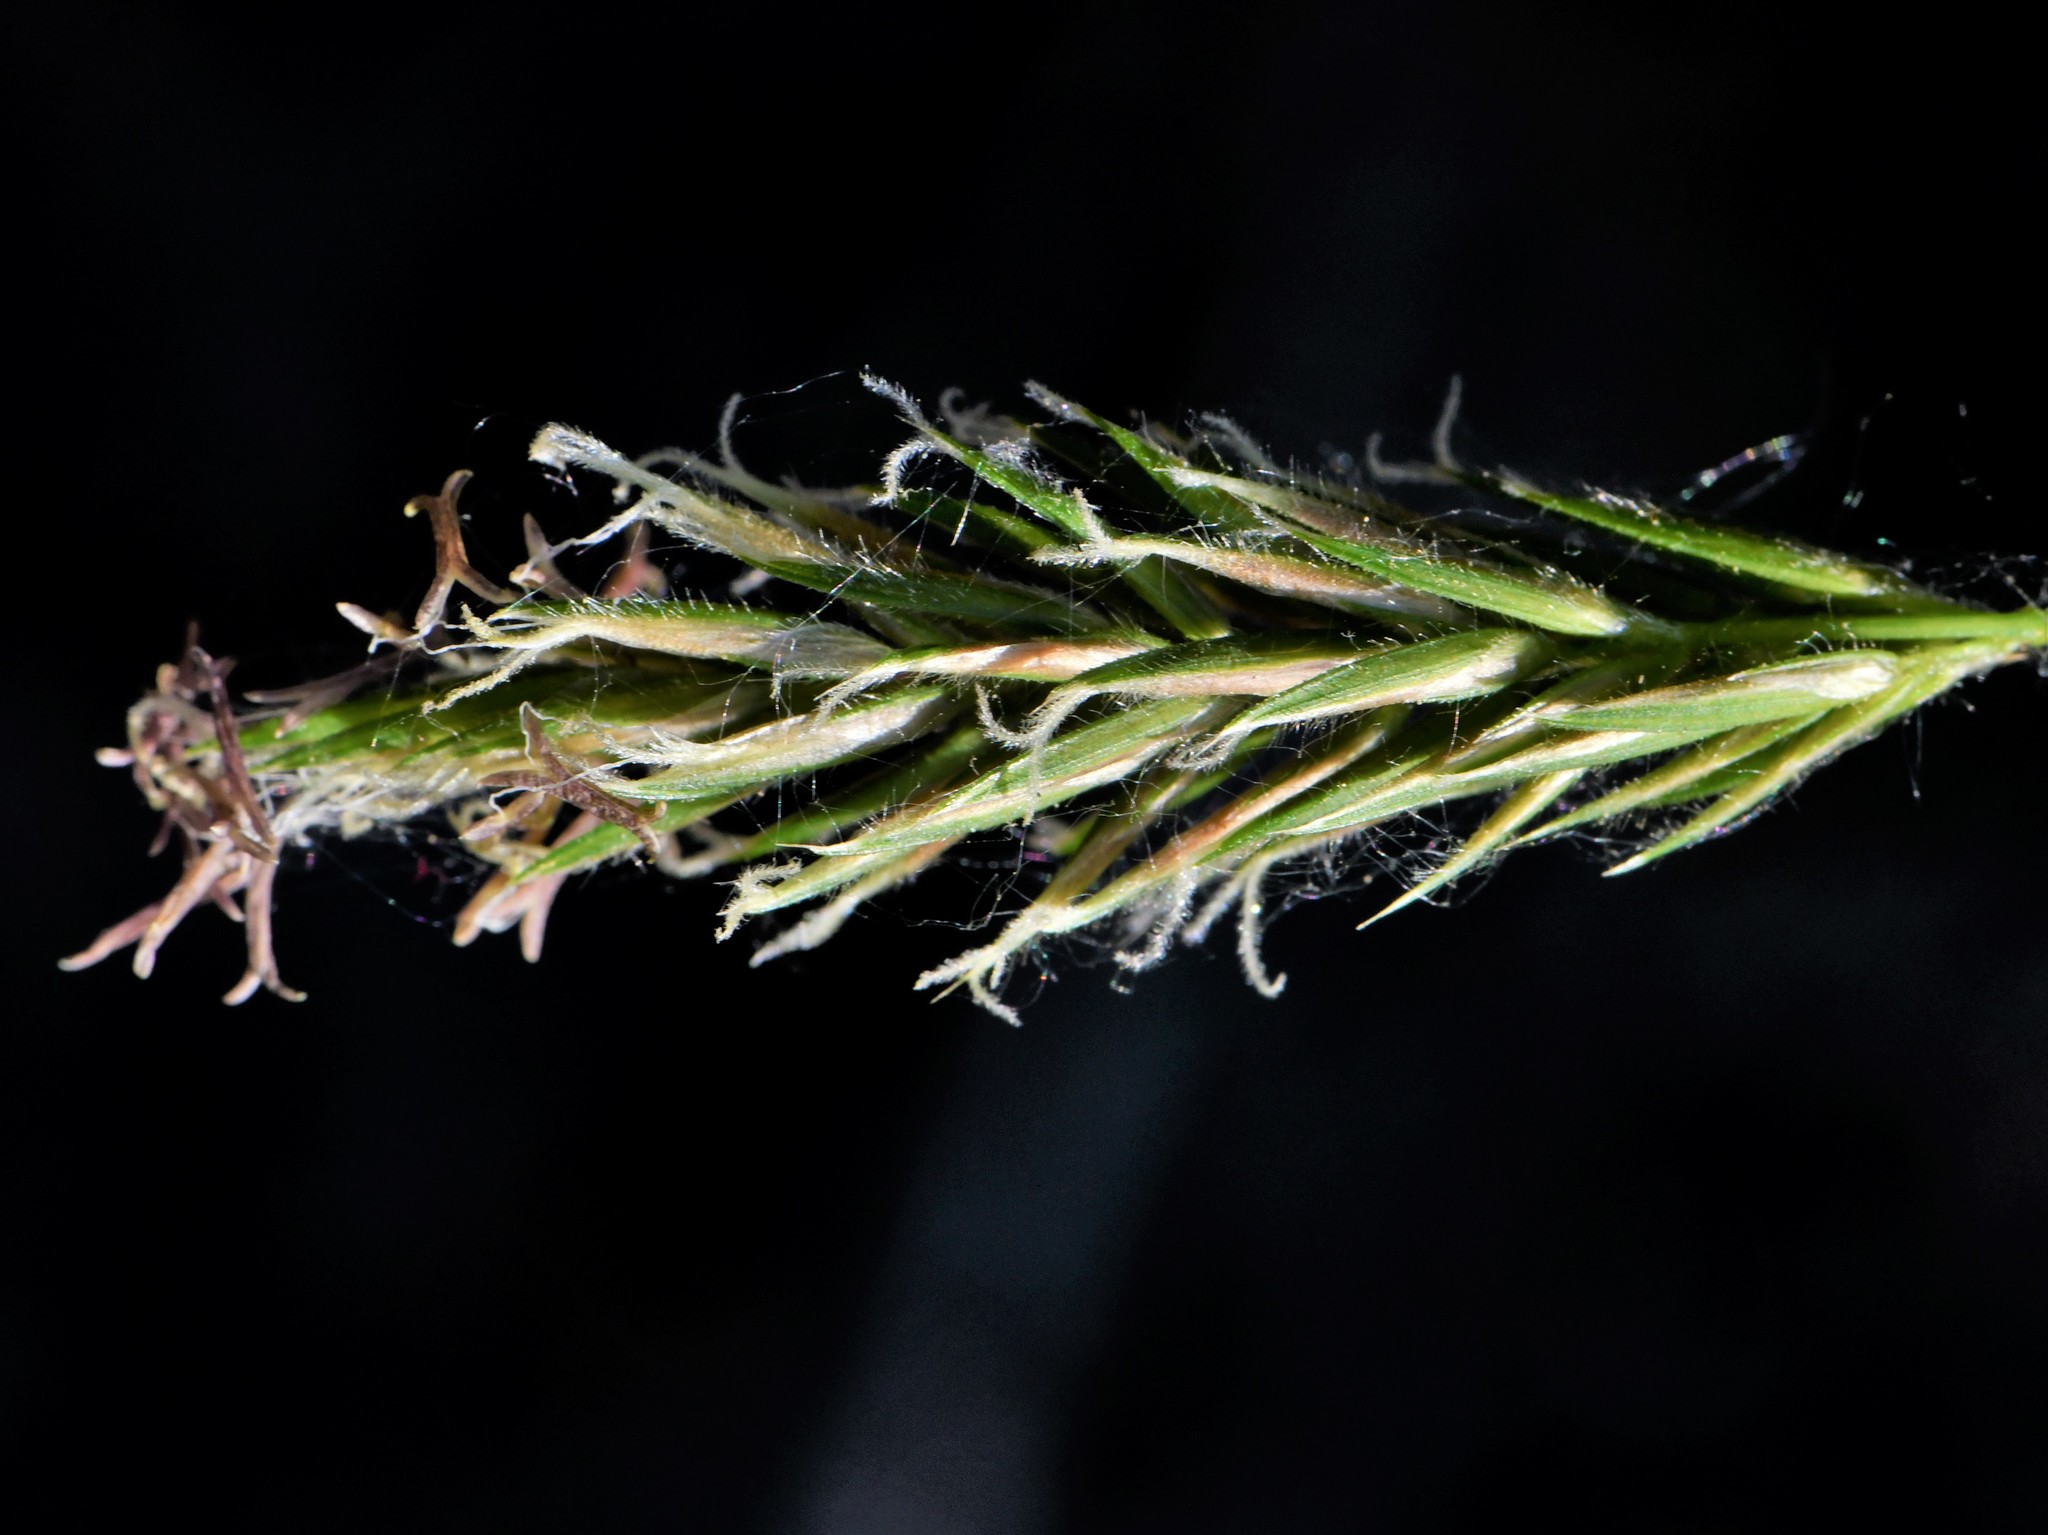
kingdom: Plantae
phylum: Tracheophyta
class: Liliopsida
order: Poales
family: Poaceae
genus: Anthoxanthum
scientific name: Anthoxanthum odoratum
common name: Sweet vernalgrass
